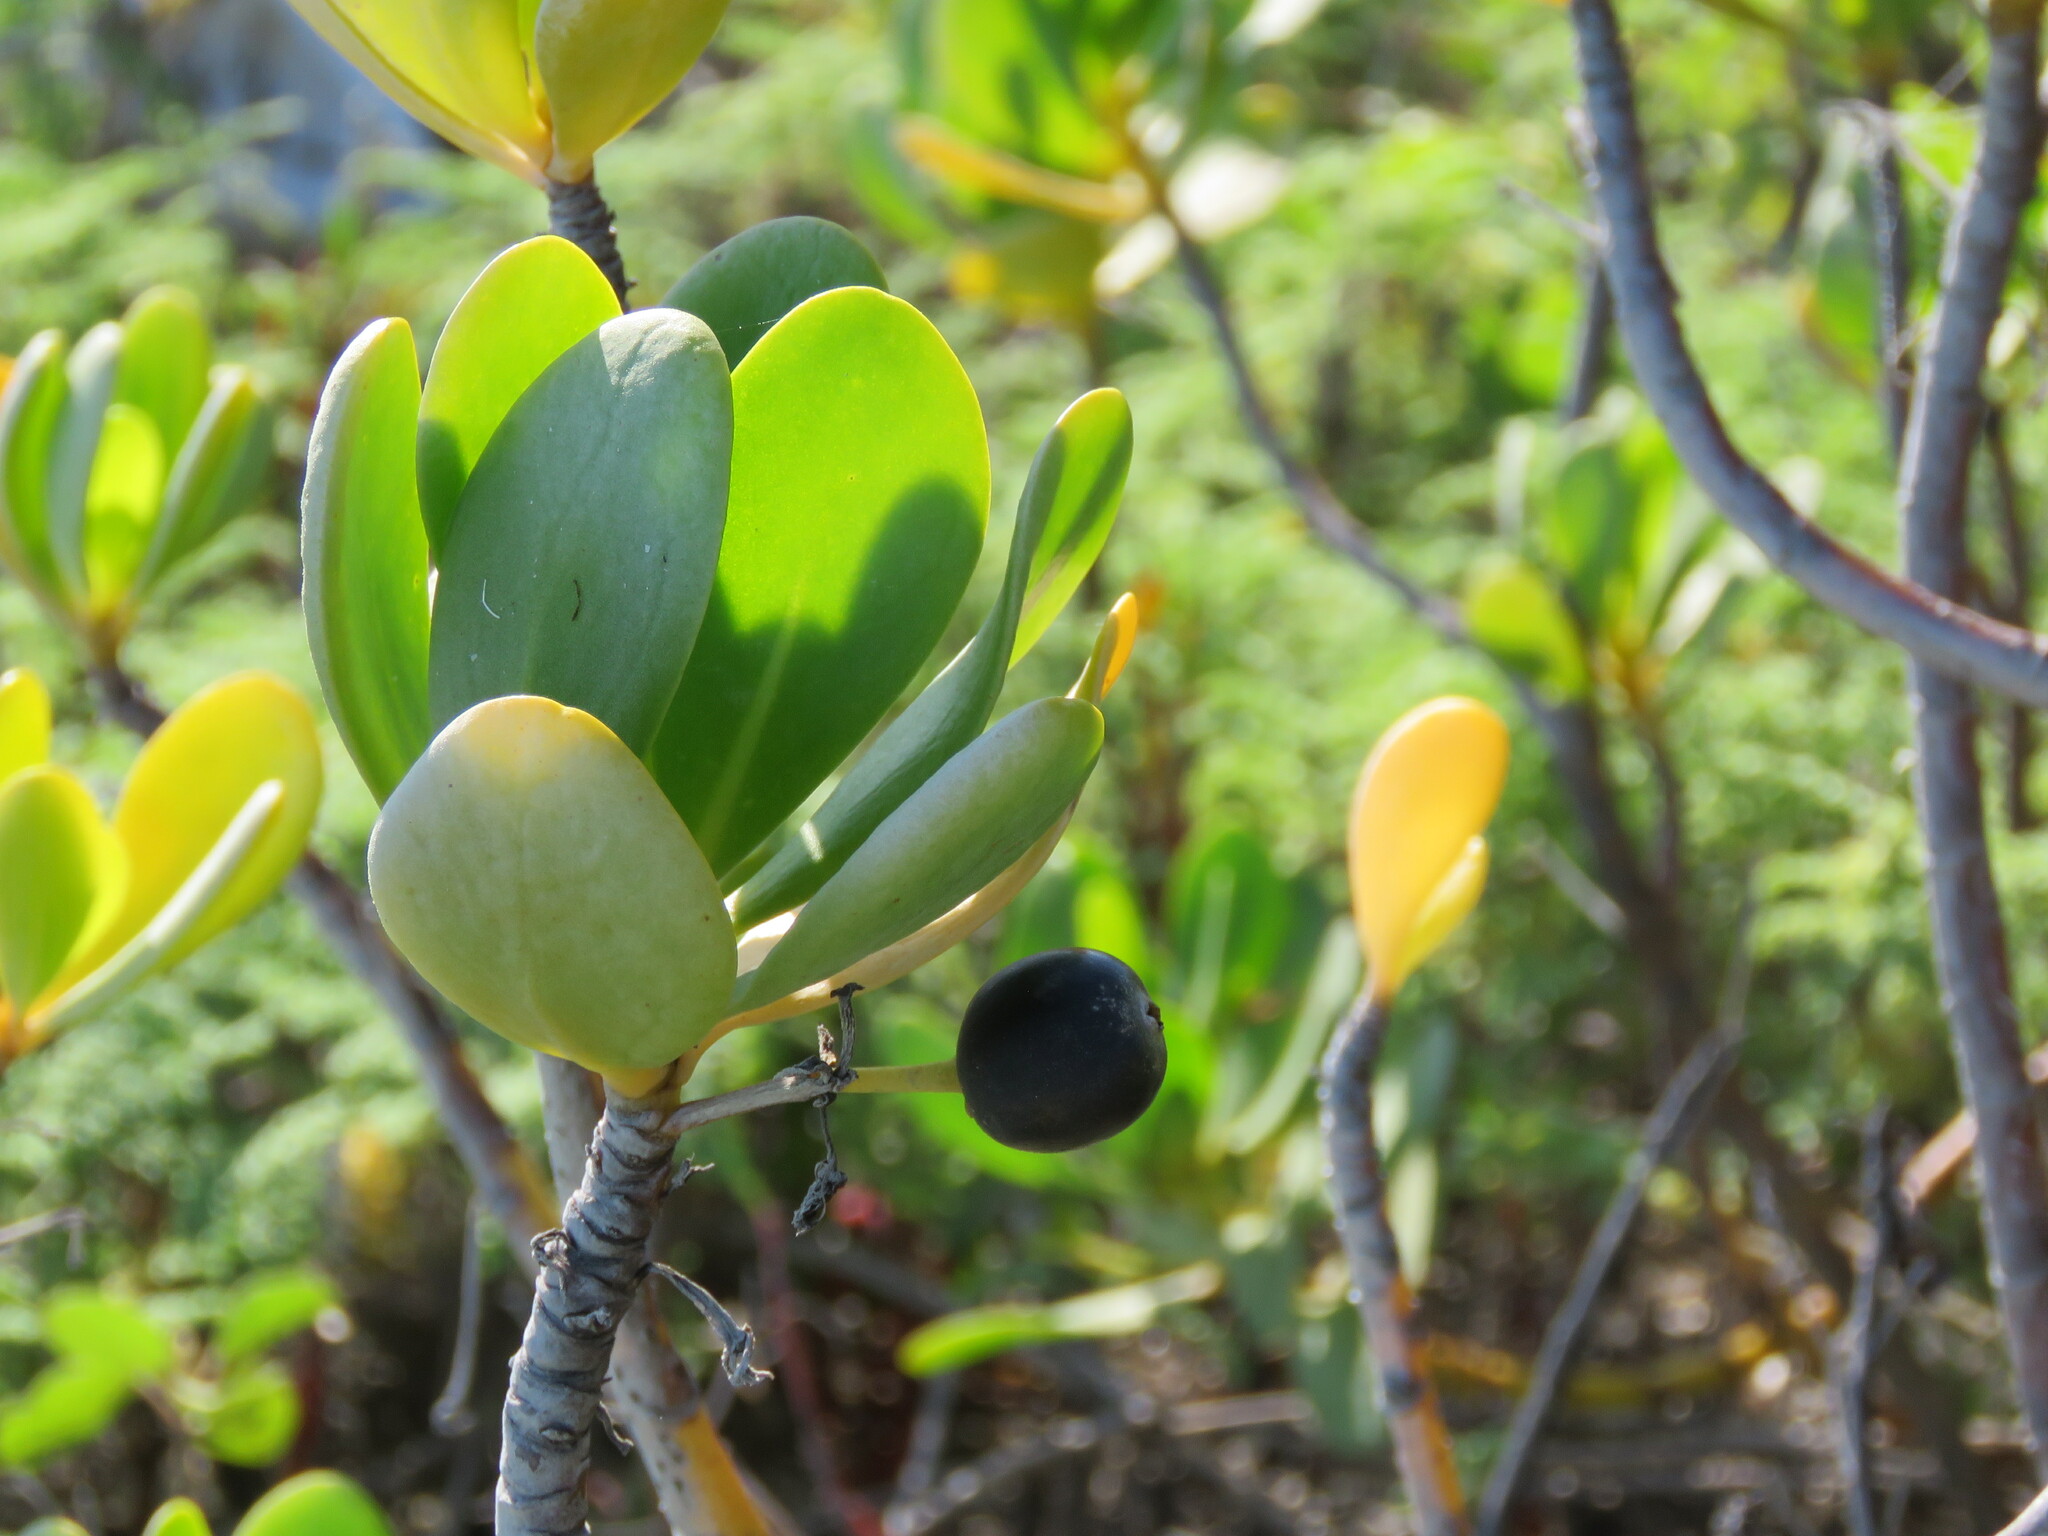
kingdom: Plantae
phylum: Tracheophyta
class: Magnoliopsida
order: Asterales
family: Goodeniaceae
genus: Scaevola
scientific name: Scaevola plumieri
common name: Gull feed
